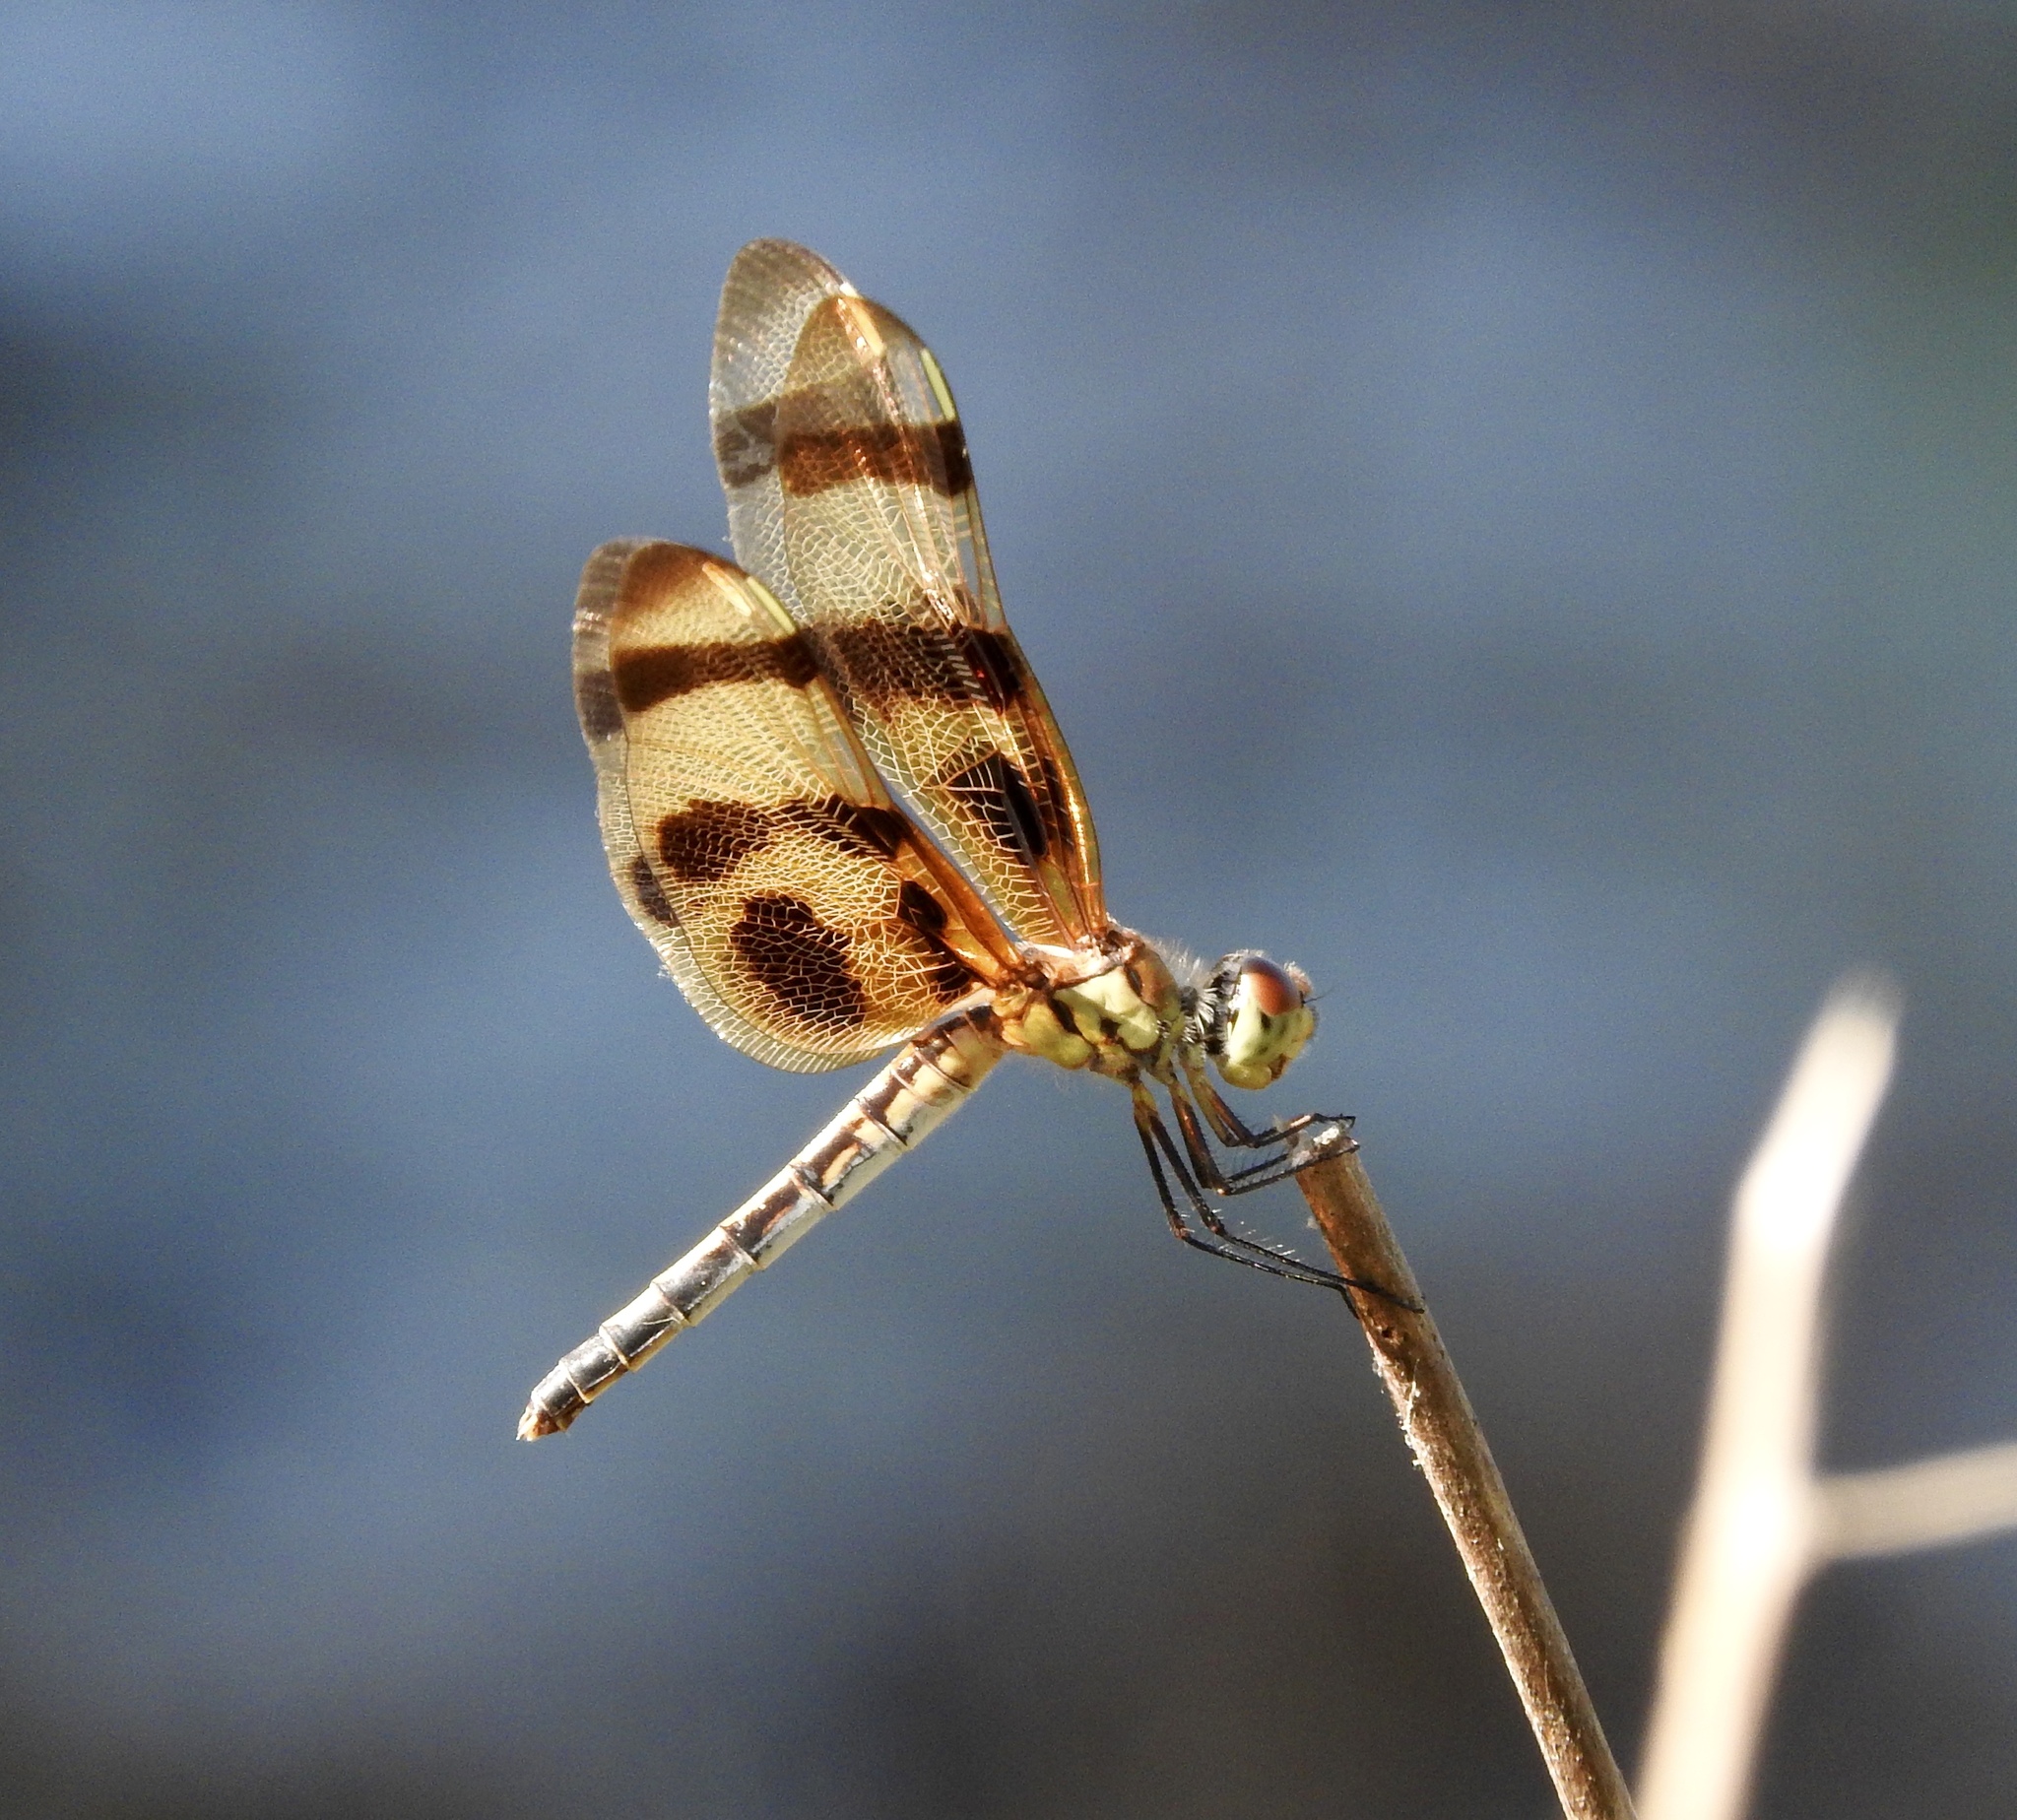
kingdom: Animalia
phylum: Arthropoda
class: Insecta
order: Odonata
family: Libellulidae
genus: Celithemis
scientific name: Celithemis eponina
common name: Halloween pennant
